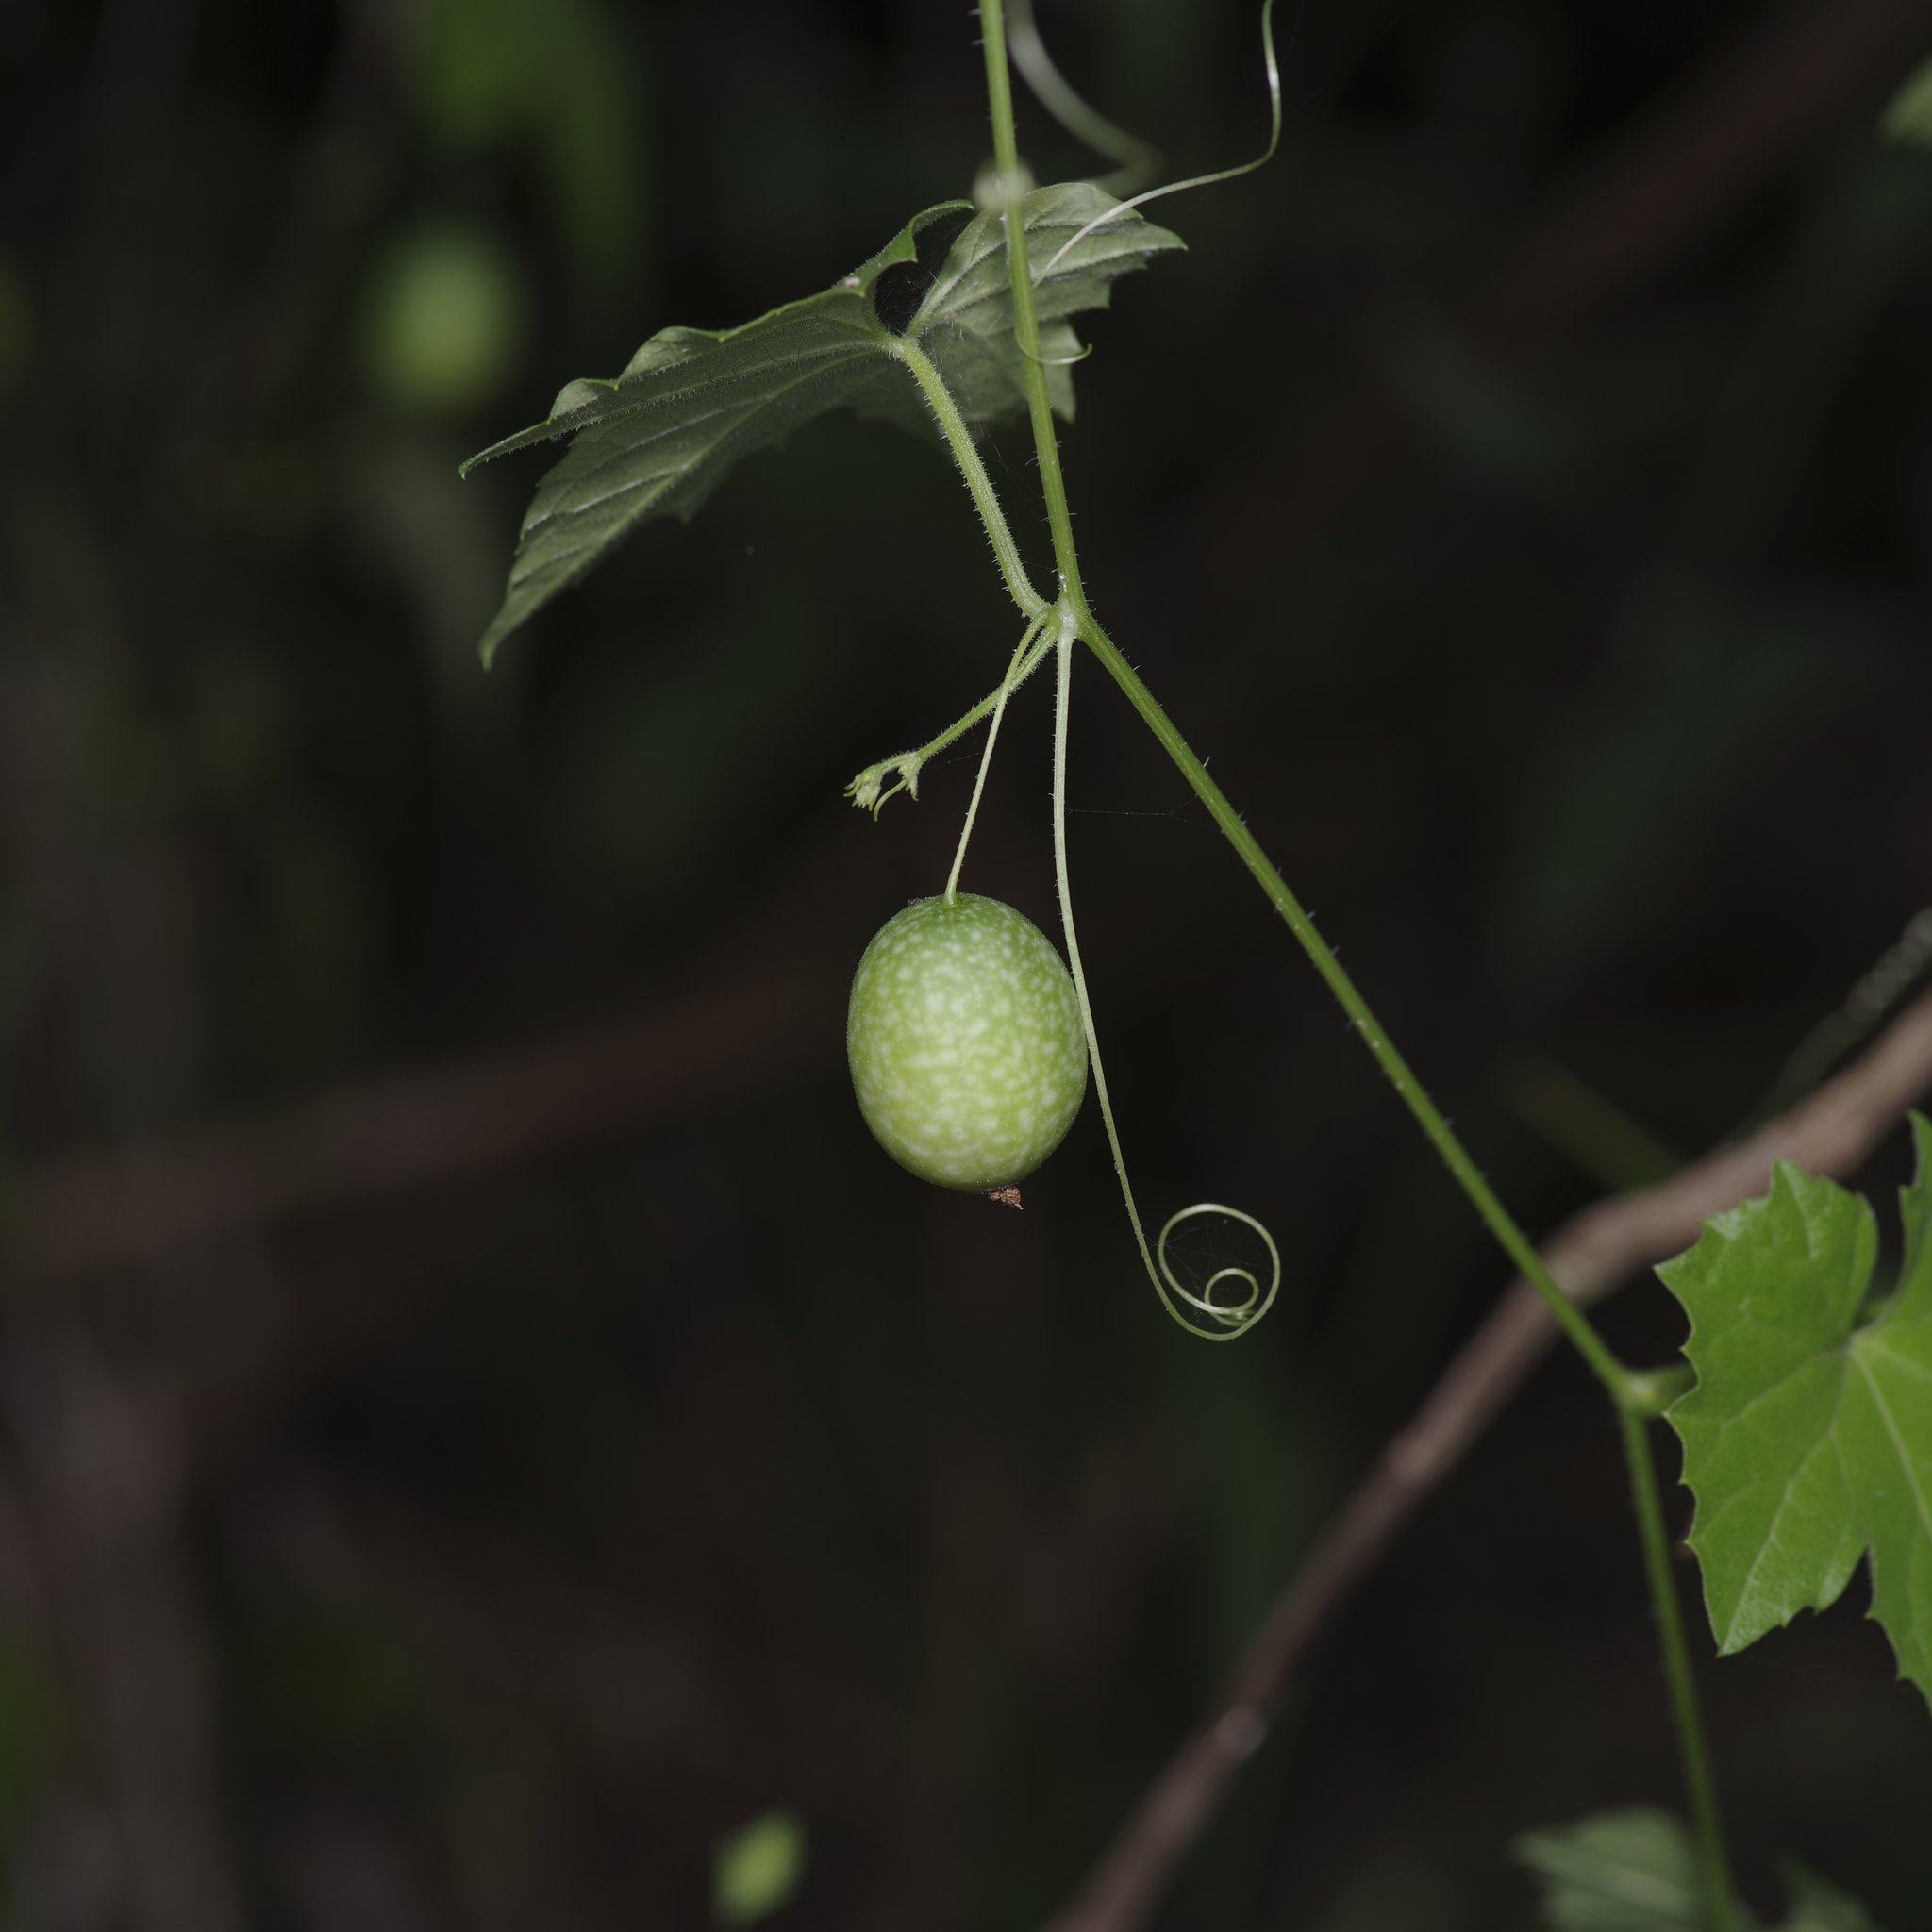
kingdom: Plantae
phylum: Tracheophyta
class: Magnoliopsida
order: Cucurbitales
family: Cucurbitaceae
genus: Melothria
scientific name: Melothria pendula
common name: Creeping-cucumber
